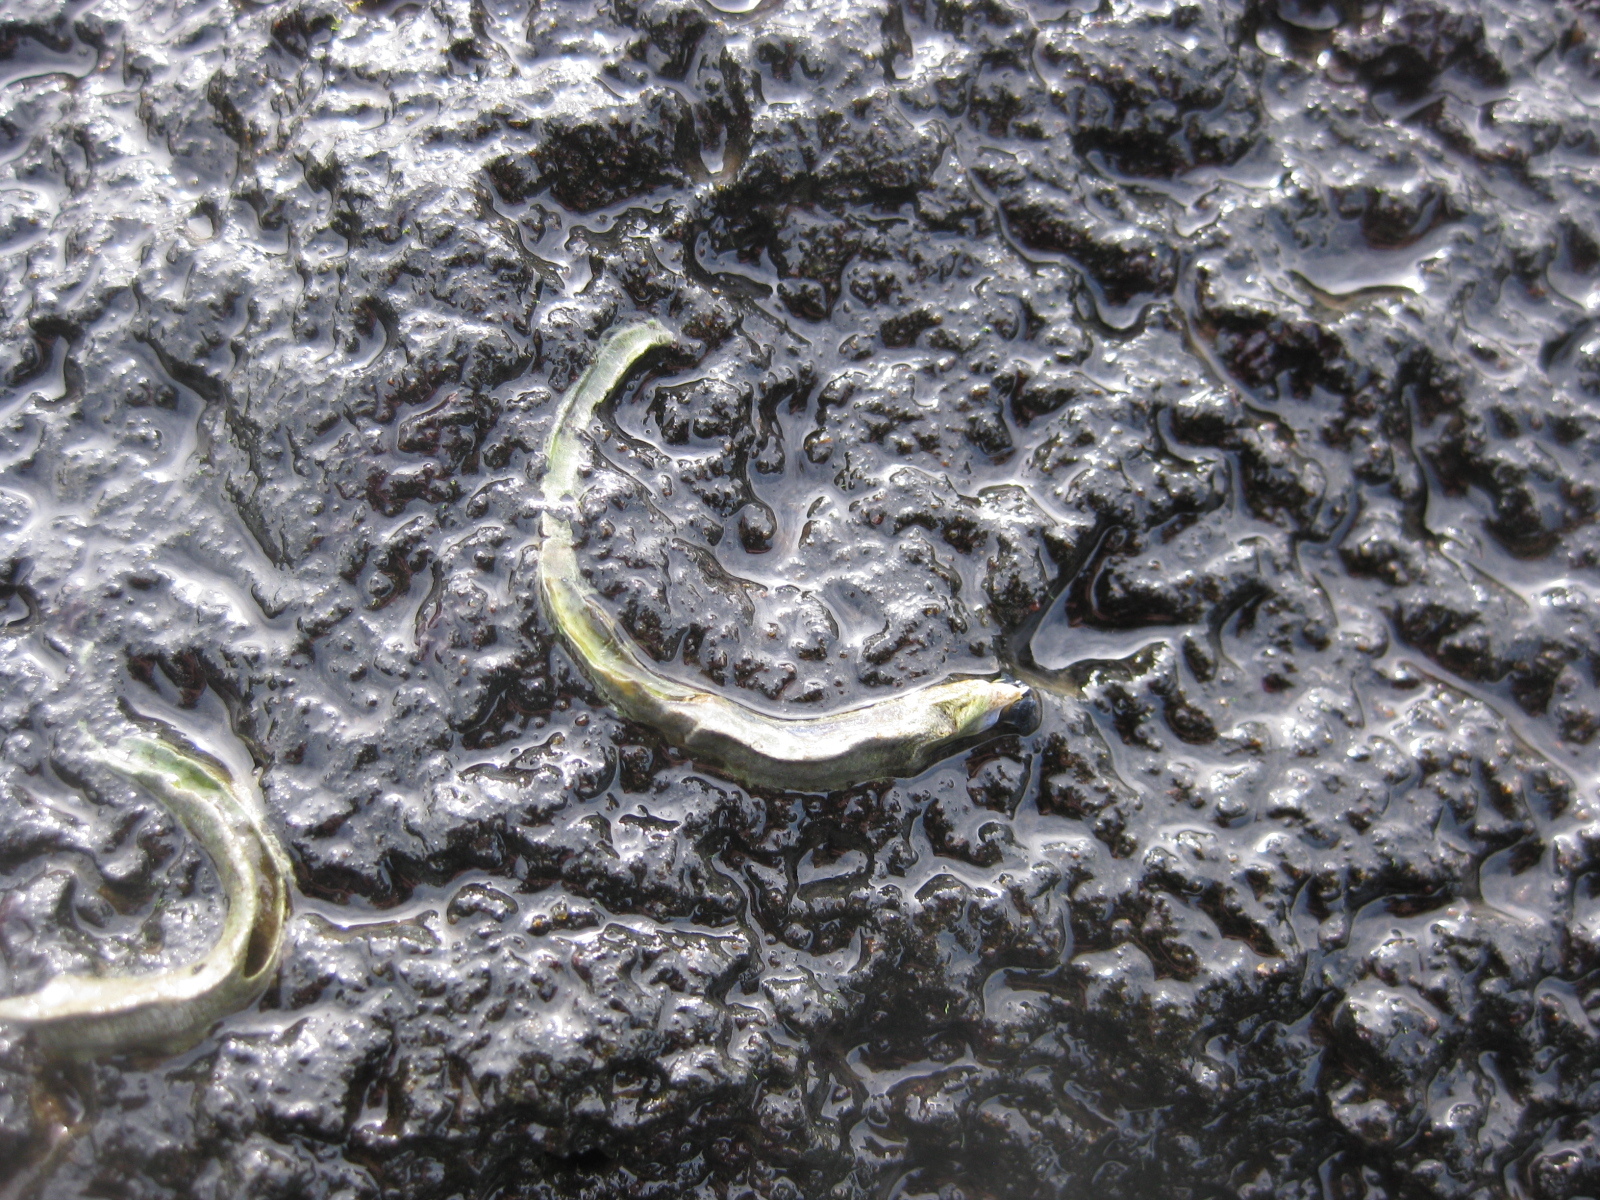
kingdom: Animalia
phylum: Annelida
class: Polychaeta
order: Sabellida
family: Serpulidae
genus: Spirobranchus
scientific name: Spirobranchus cariniferus
